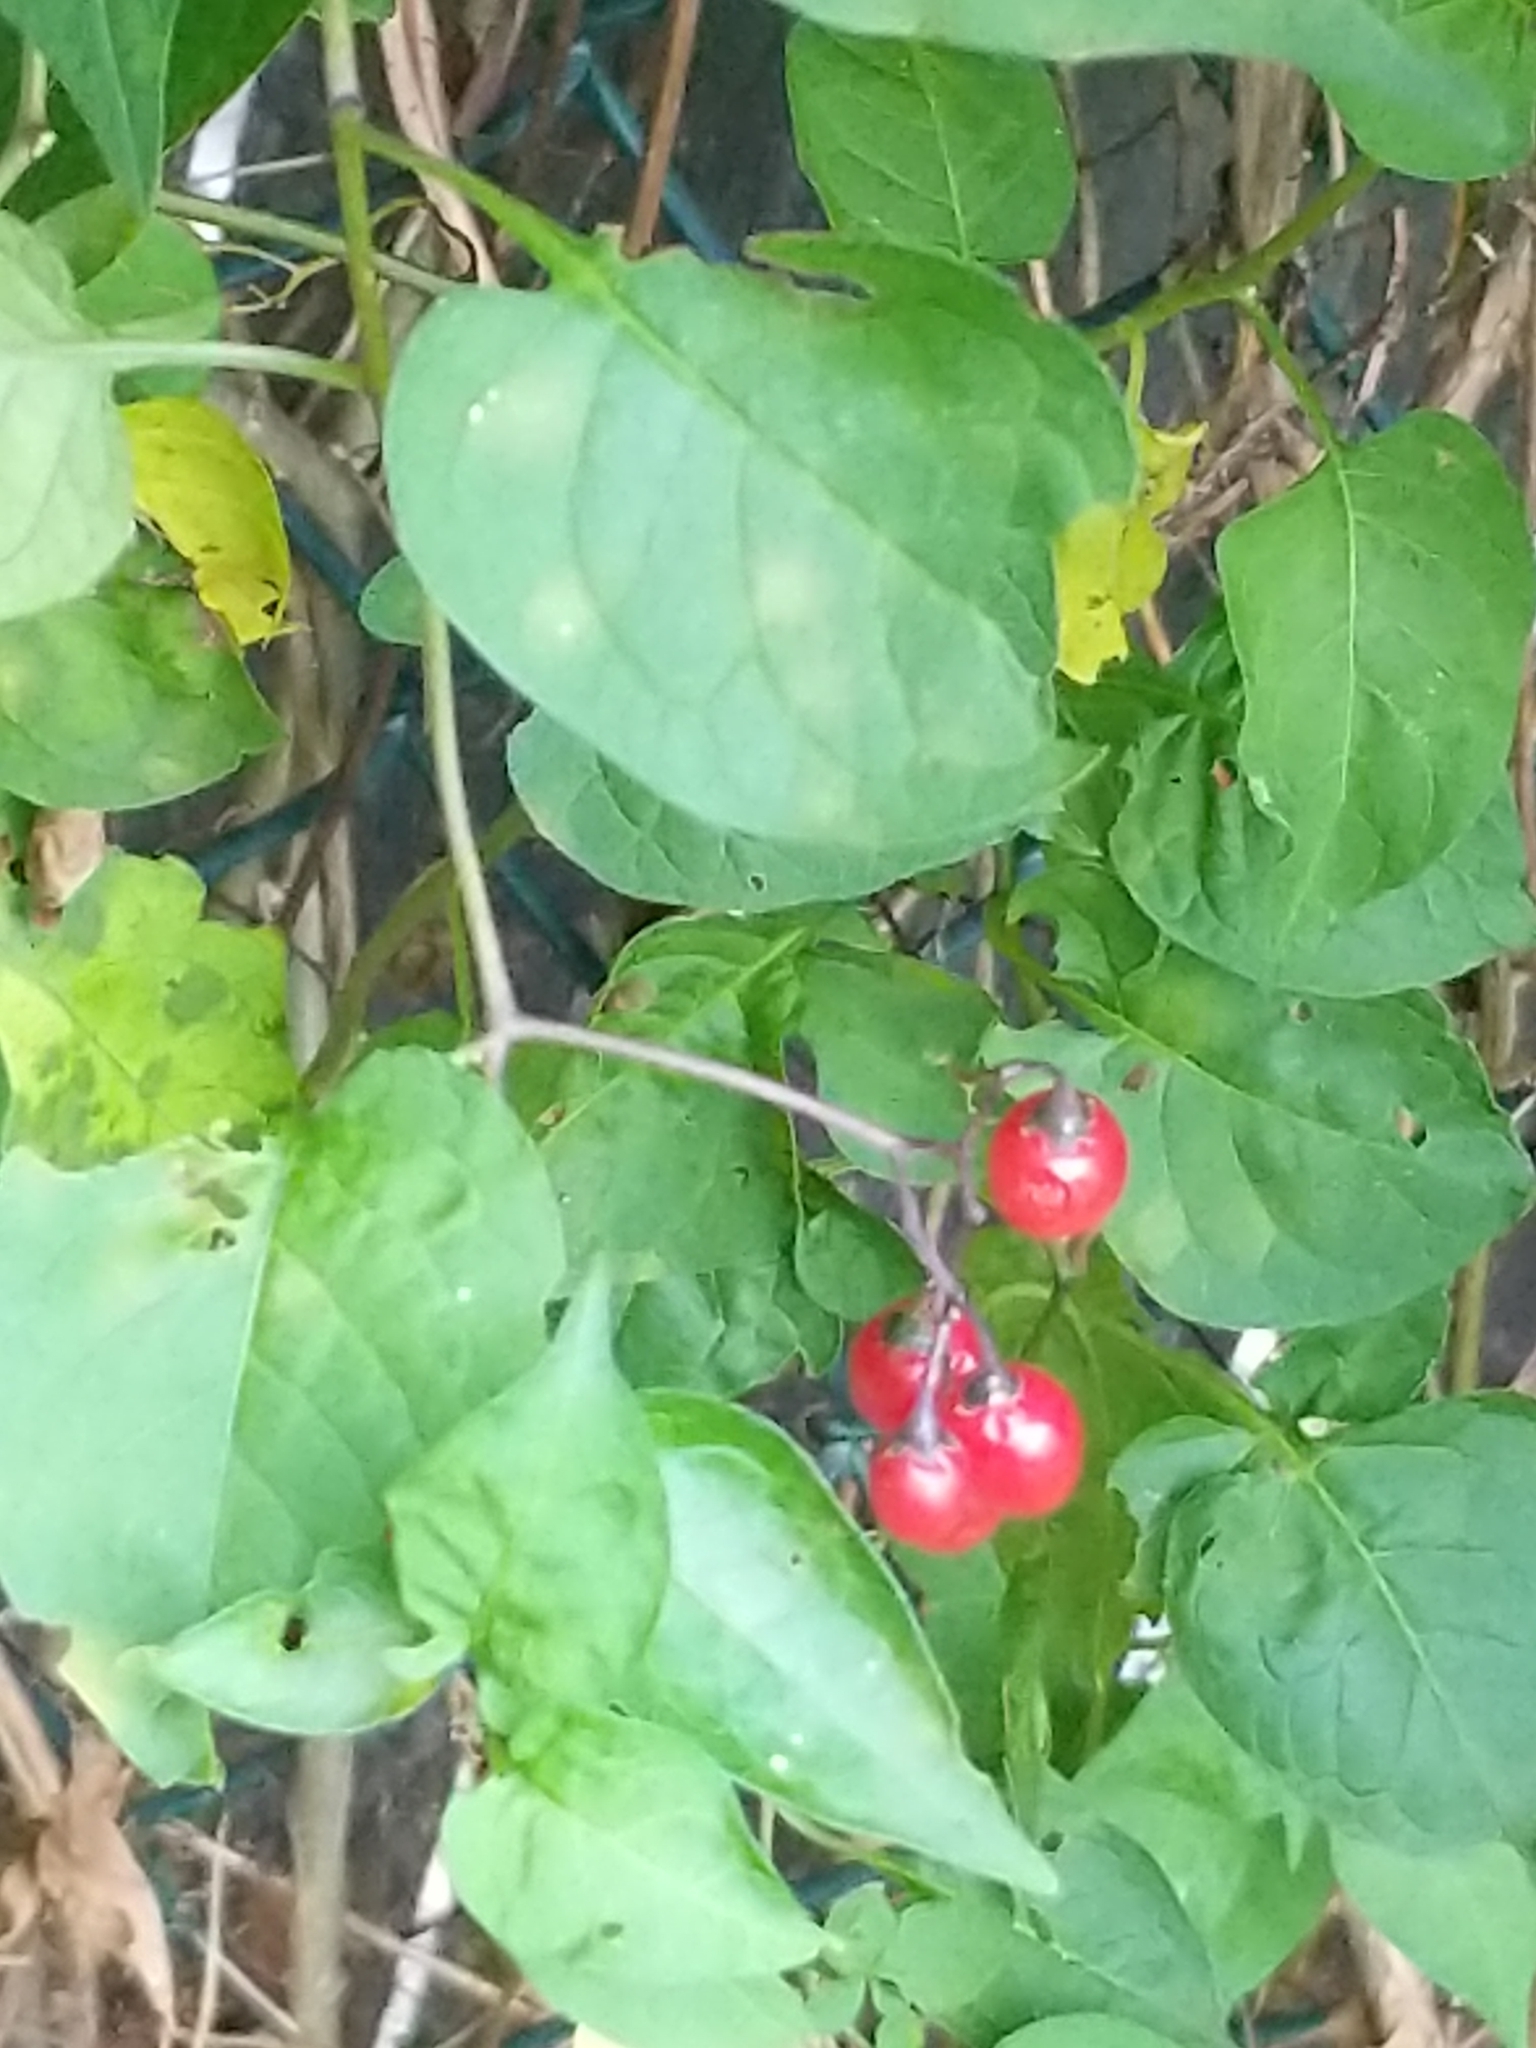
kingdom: Plantae
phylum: Tracheophyta
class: Magnoliopsida
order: Solanales
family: Solanaceae
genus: Solanum
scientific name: Solanum dulcamara
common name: Climbing nightshade
